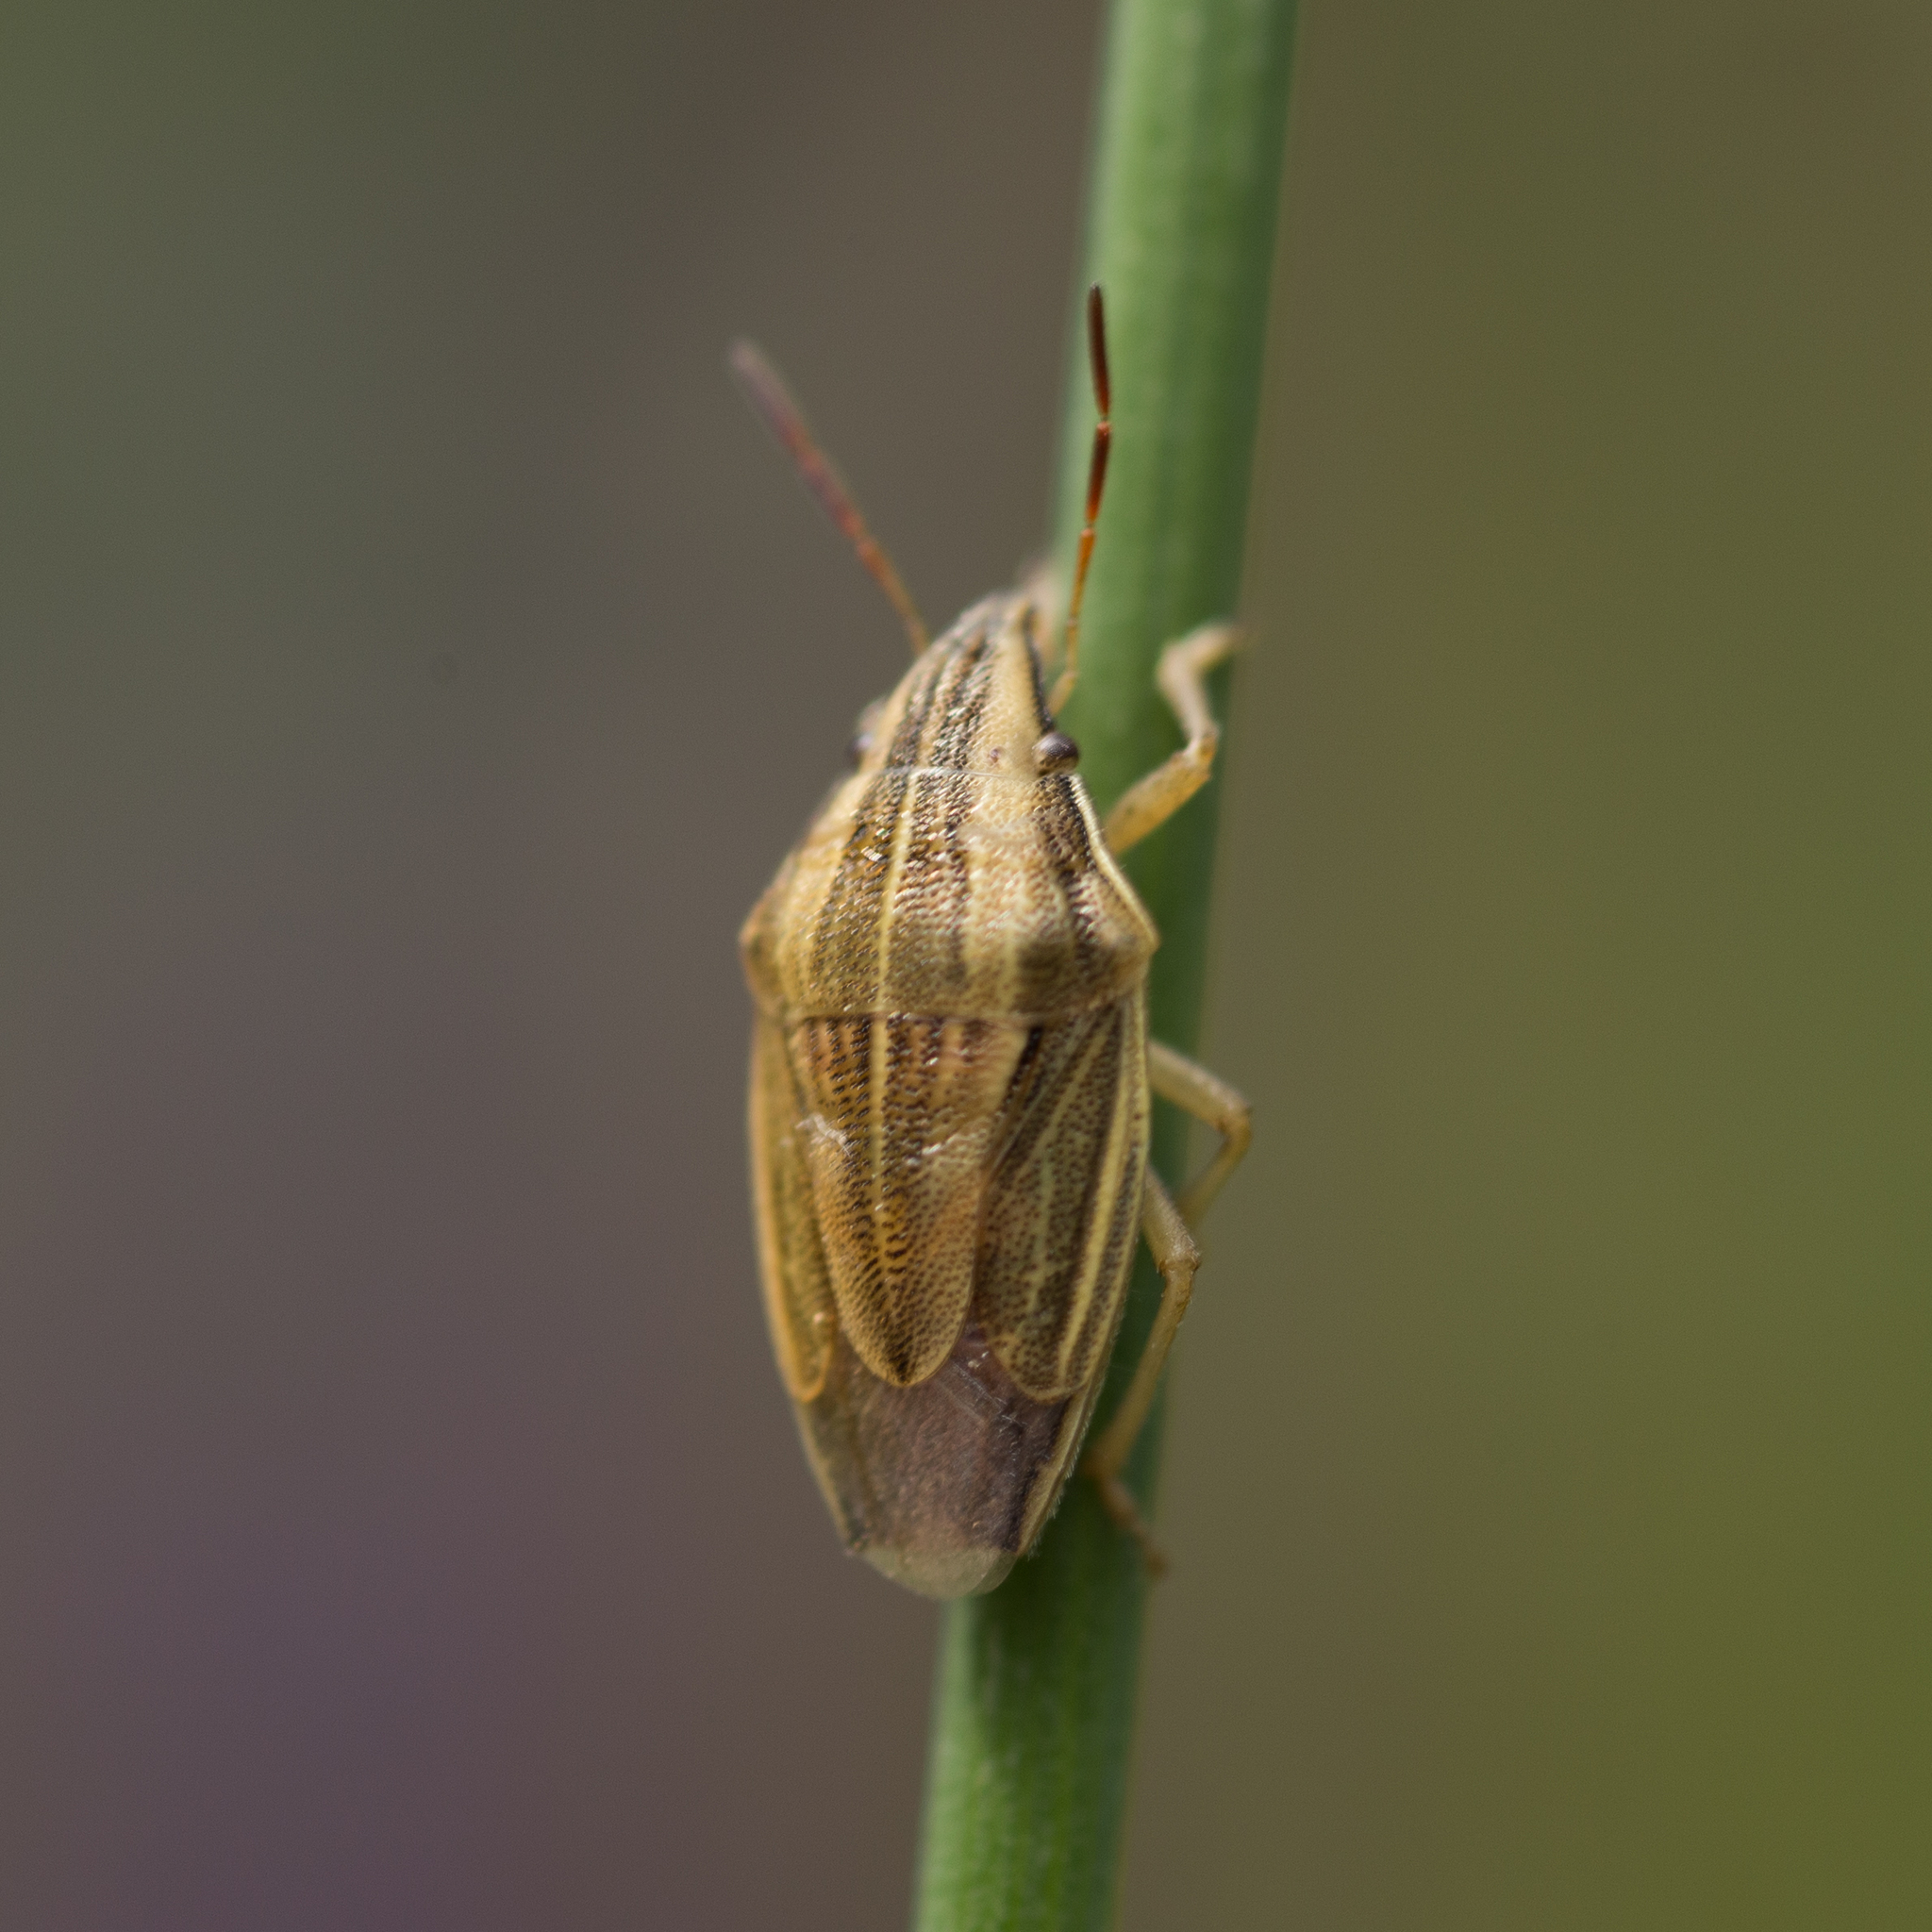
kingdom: Animalia
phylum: Arthropoda
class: Insecta
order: Hemiptera
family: Pentatomidae
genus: Aelia
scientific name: Aelia acuminata
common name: Bishop's mitre
